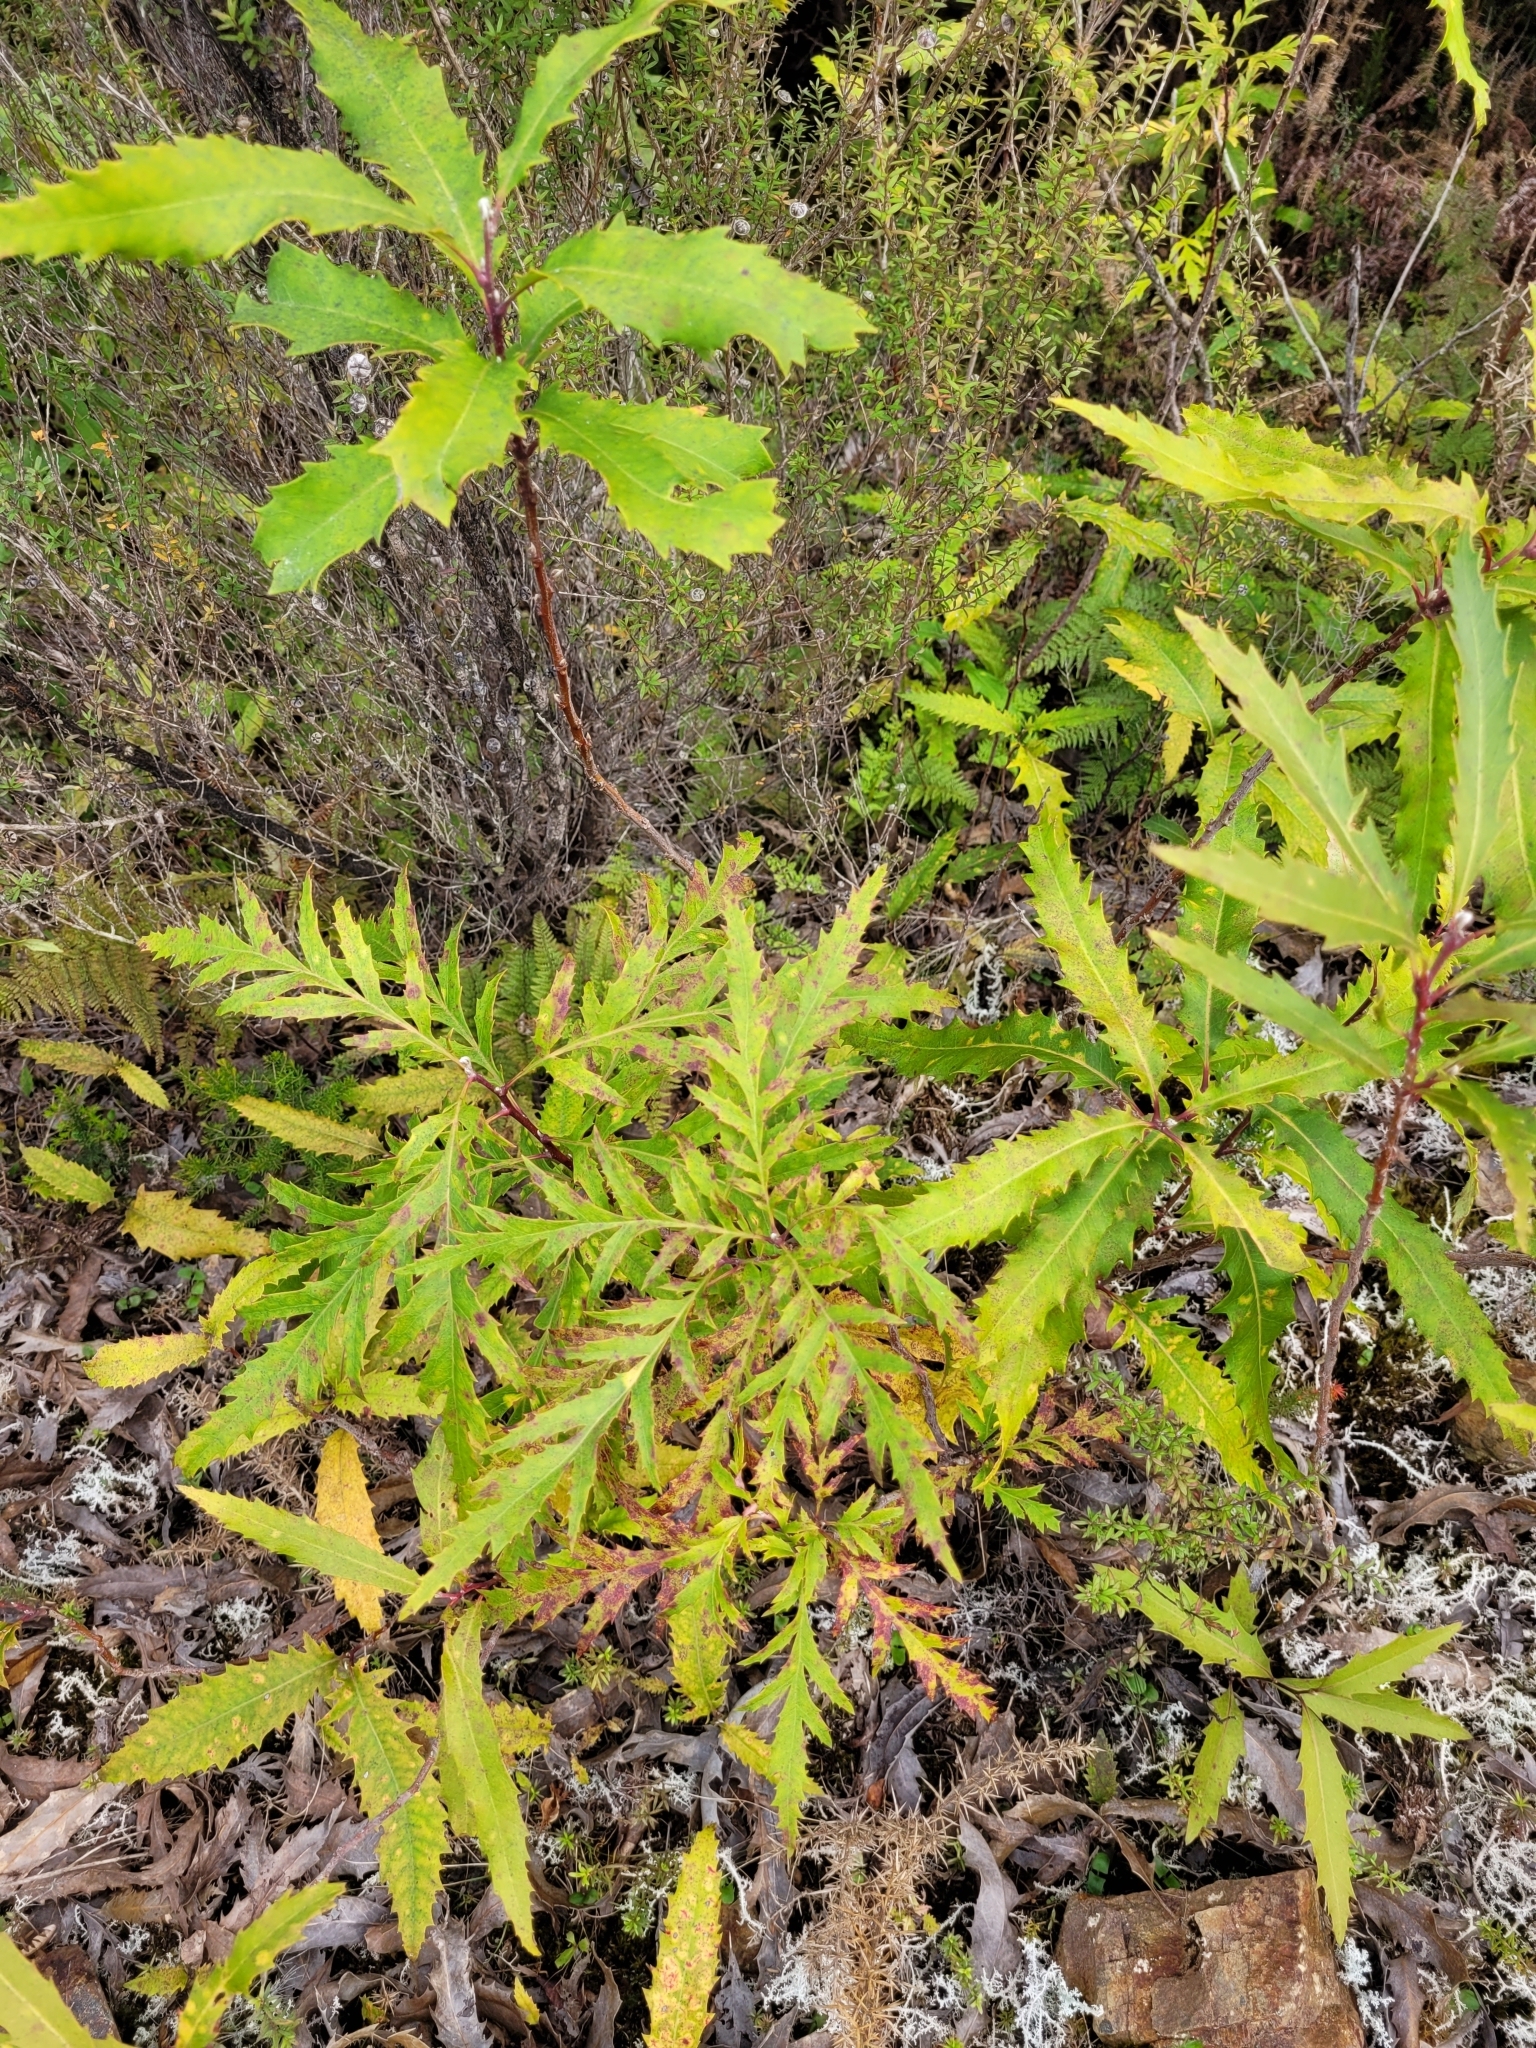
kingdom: Plantae
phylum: Tracheophyta
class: Magnoliopsida
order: Proteales
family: Proteaceae
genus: Lomatia
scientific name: Lomatia fraseri
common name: Forest lomatia
